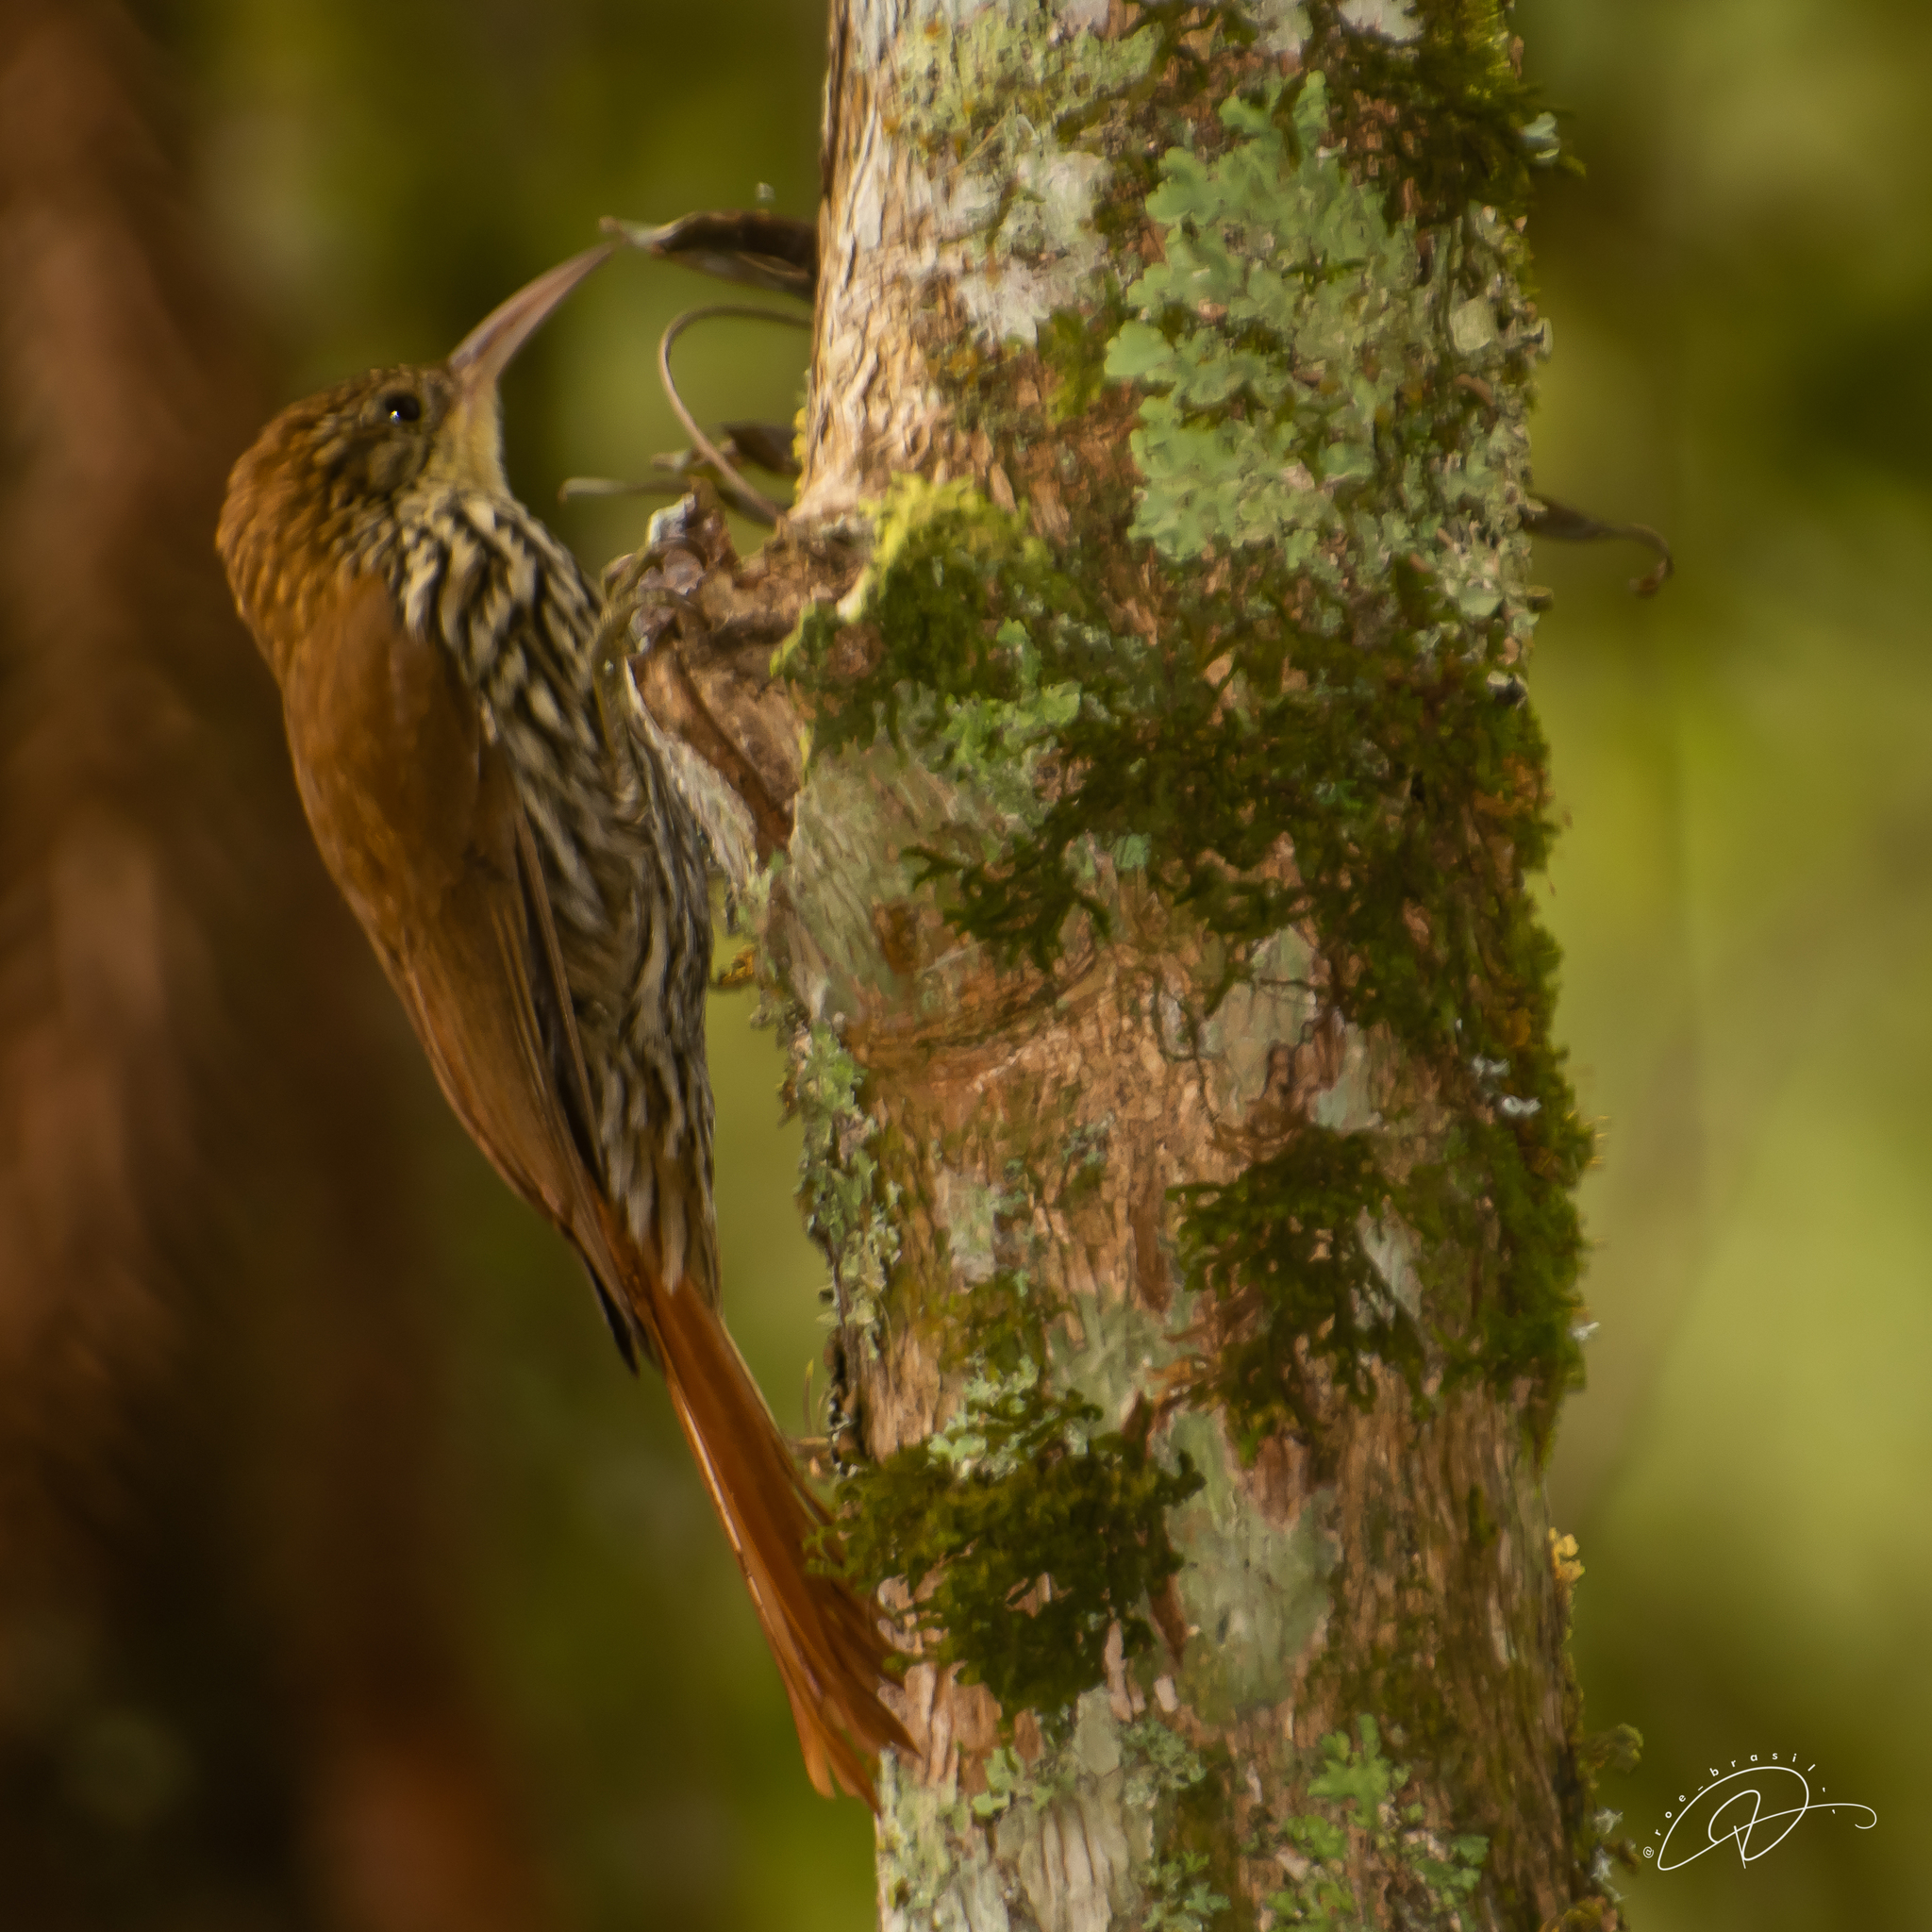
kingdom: Animalia
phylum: Chordata
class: Aves
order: Passeriformes
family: Furnariidae
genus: Lepidocolaptes
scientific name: Lepidocolaptes squamatus
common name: Scaled woodcreeper
